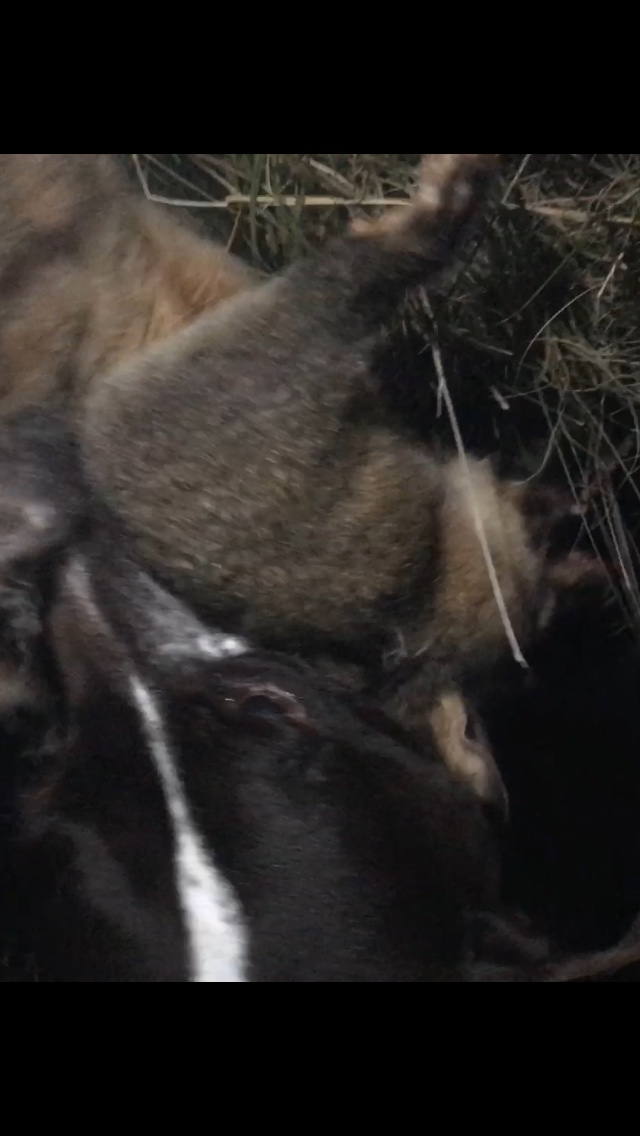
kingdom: Animalia
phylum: Chordata
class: Mammalia
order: Diprotodontia
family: Phalangeridae
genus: Trichosurus
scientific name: Trichosurus vulpecula
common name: Common brushtail
